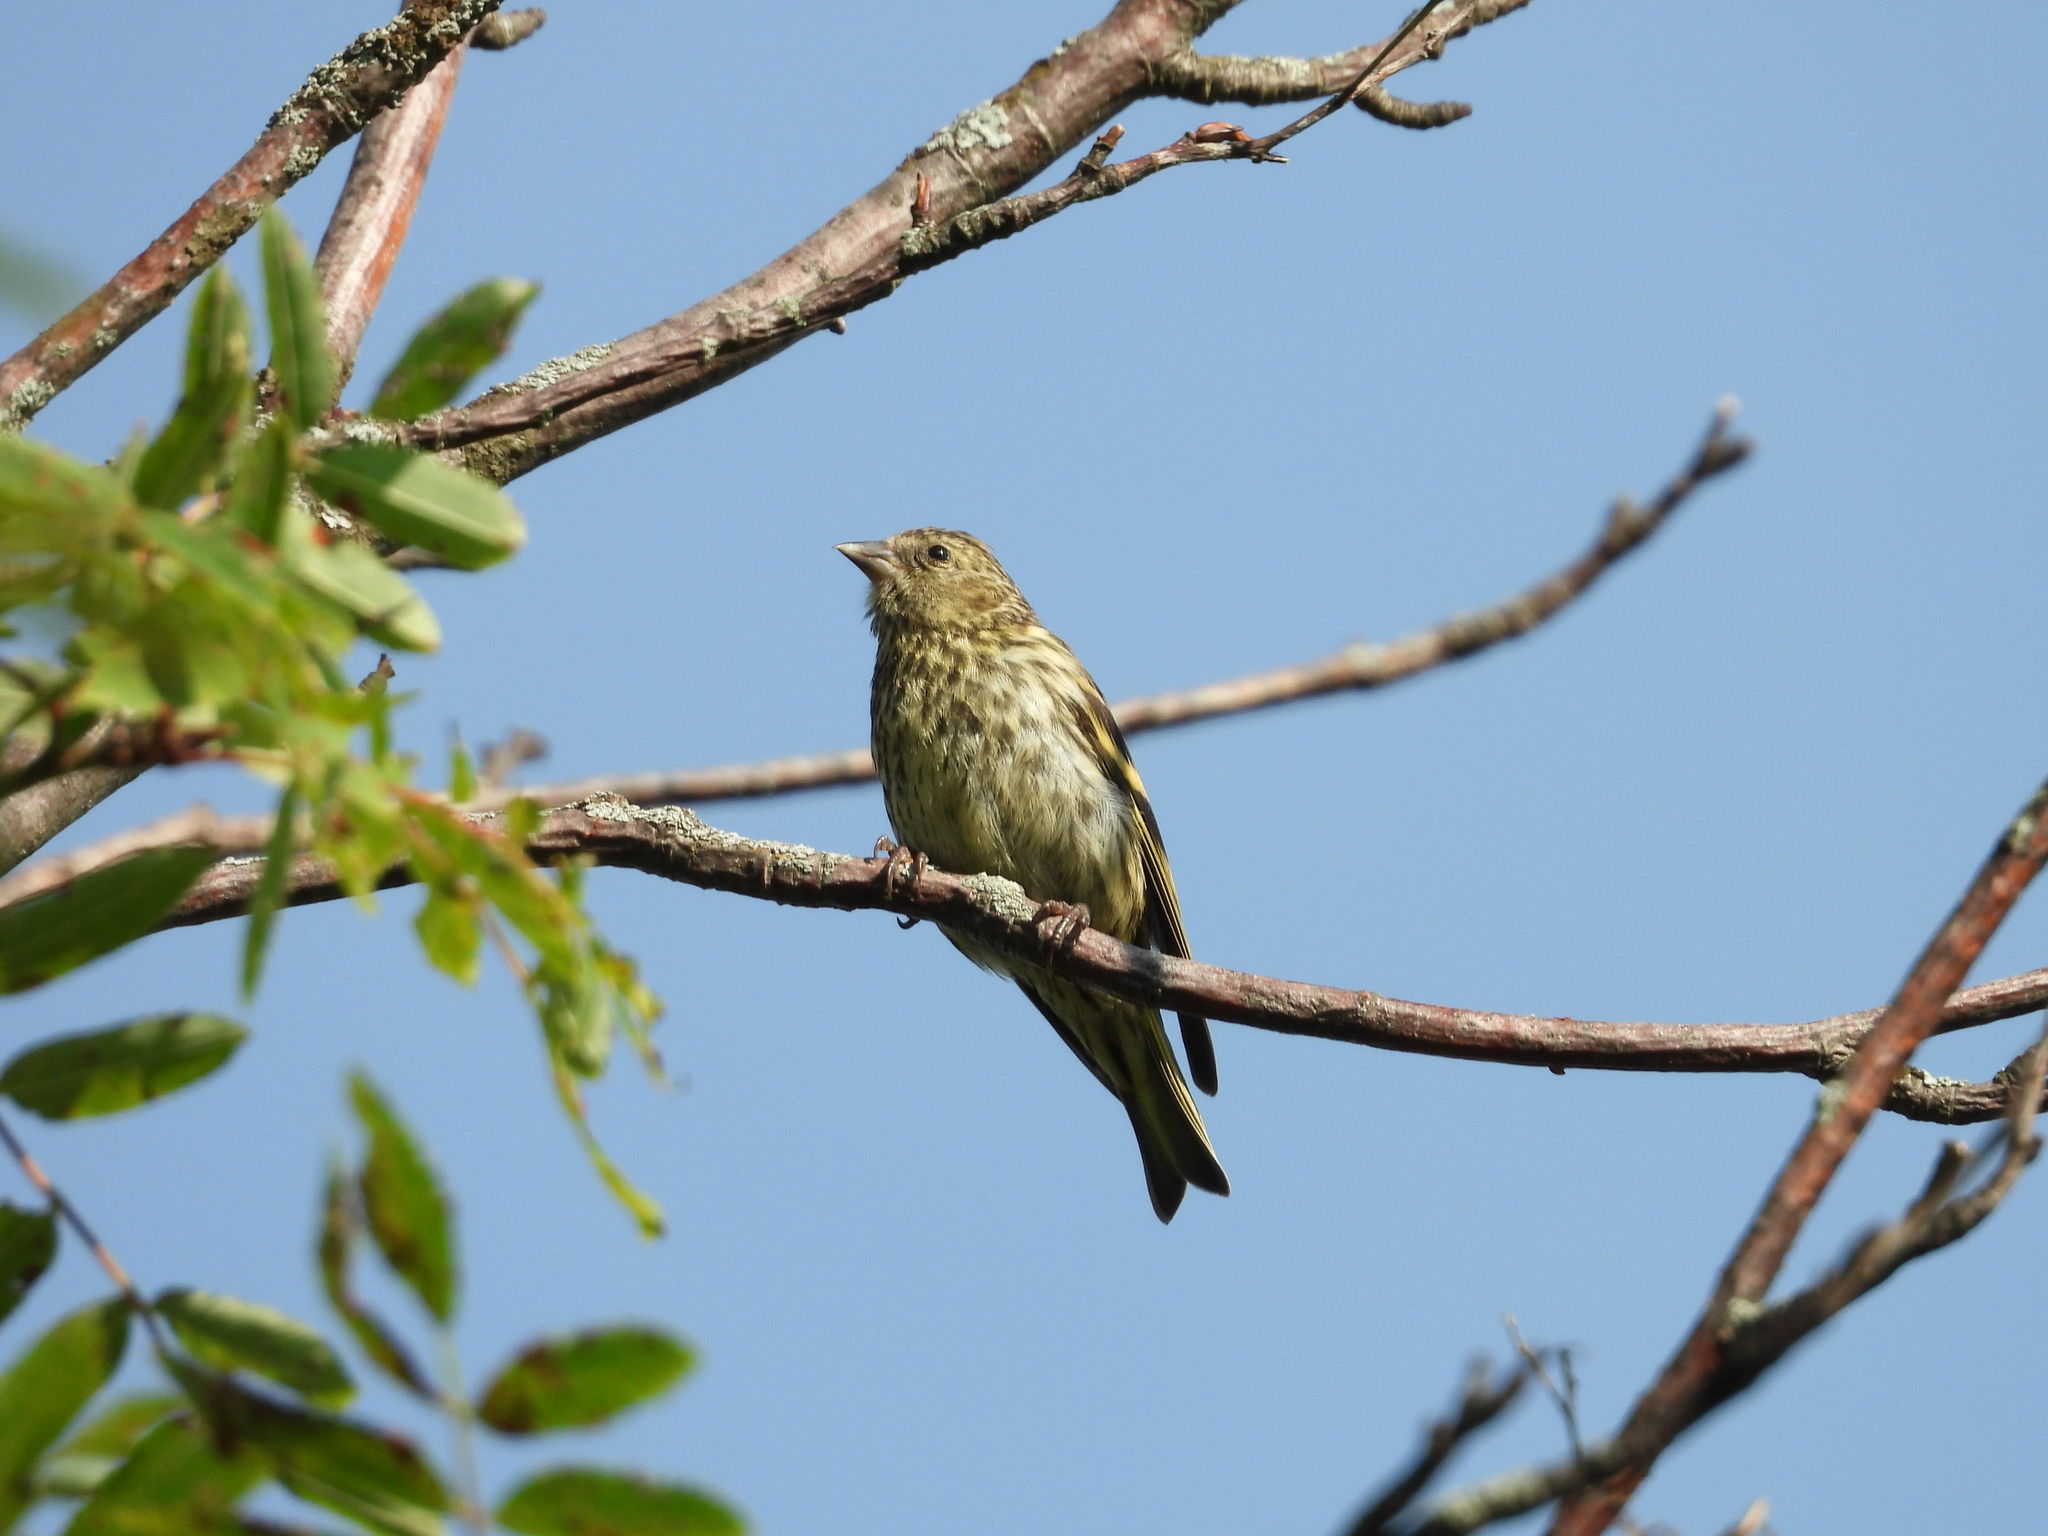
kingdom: Animalia
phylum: Chordata
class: Aves
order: Passeriformes
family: Fringillidae
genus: Spinus
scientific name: Spinus spinus
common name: Eurasian siskin
